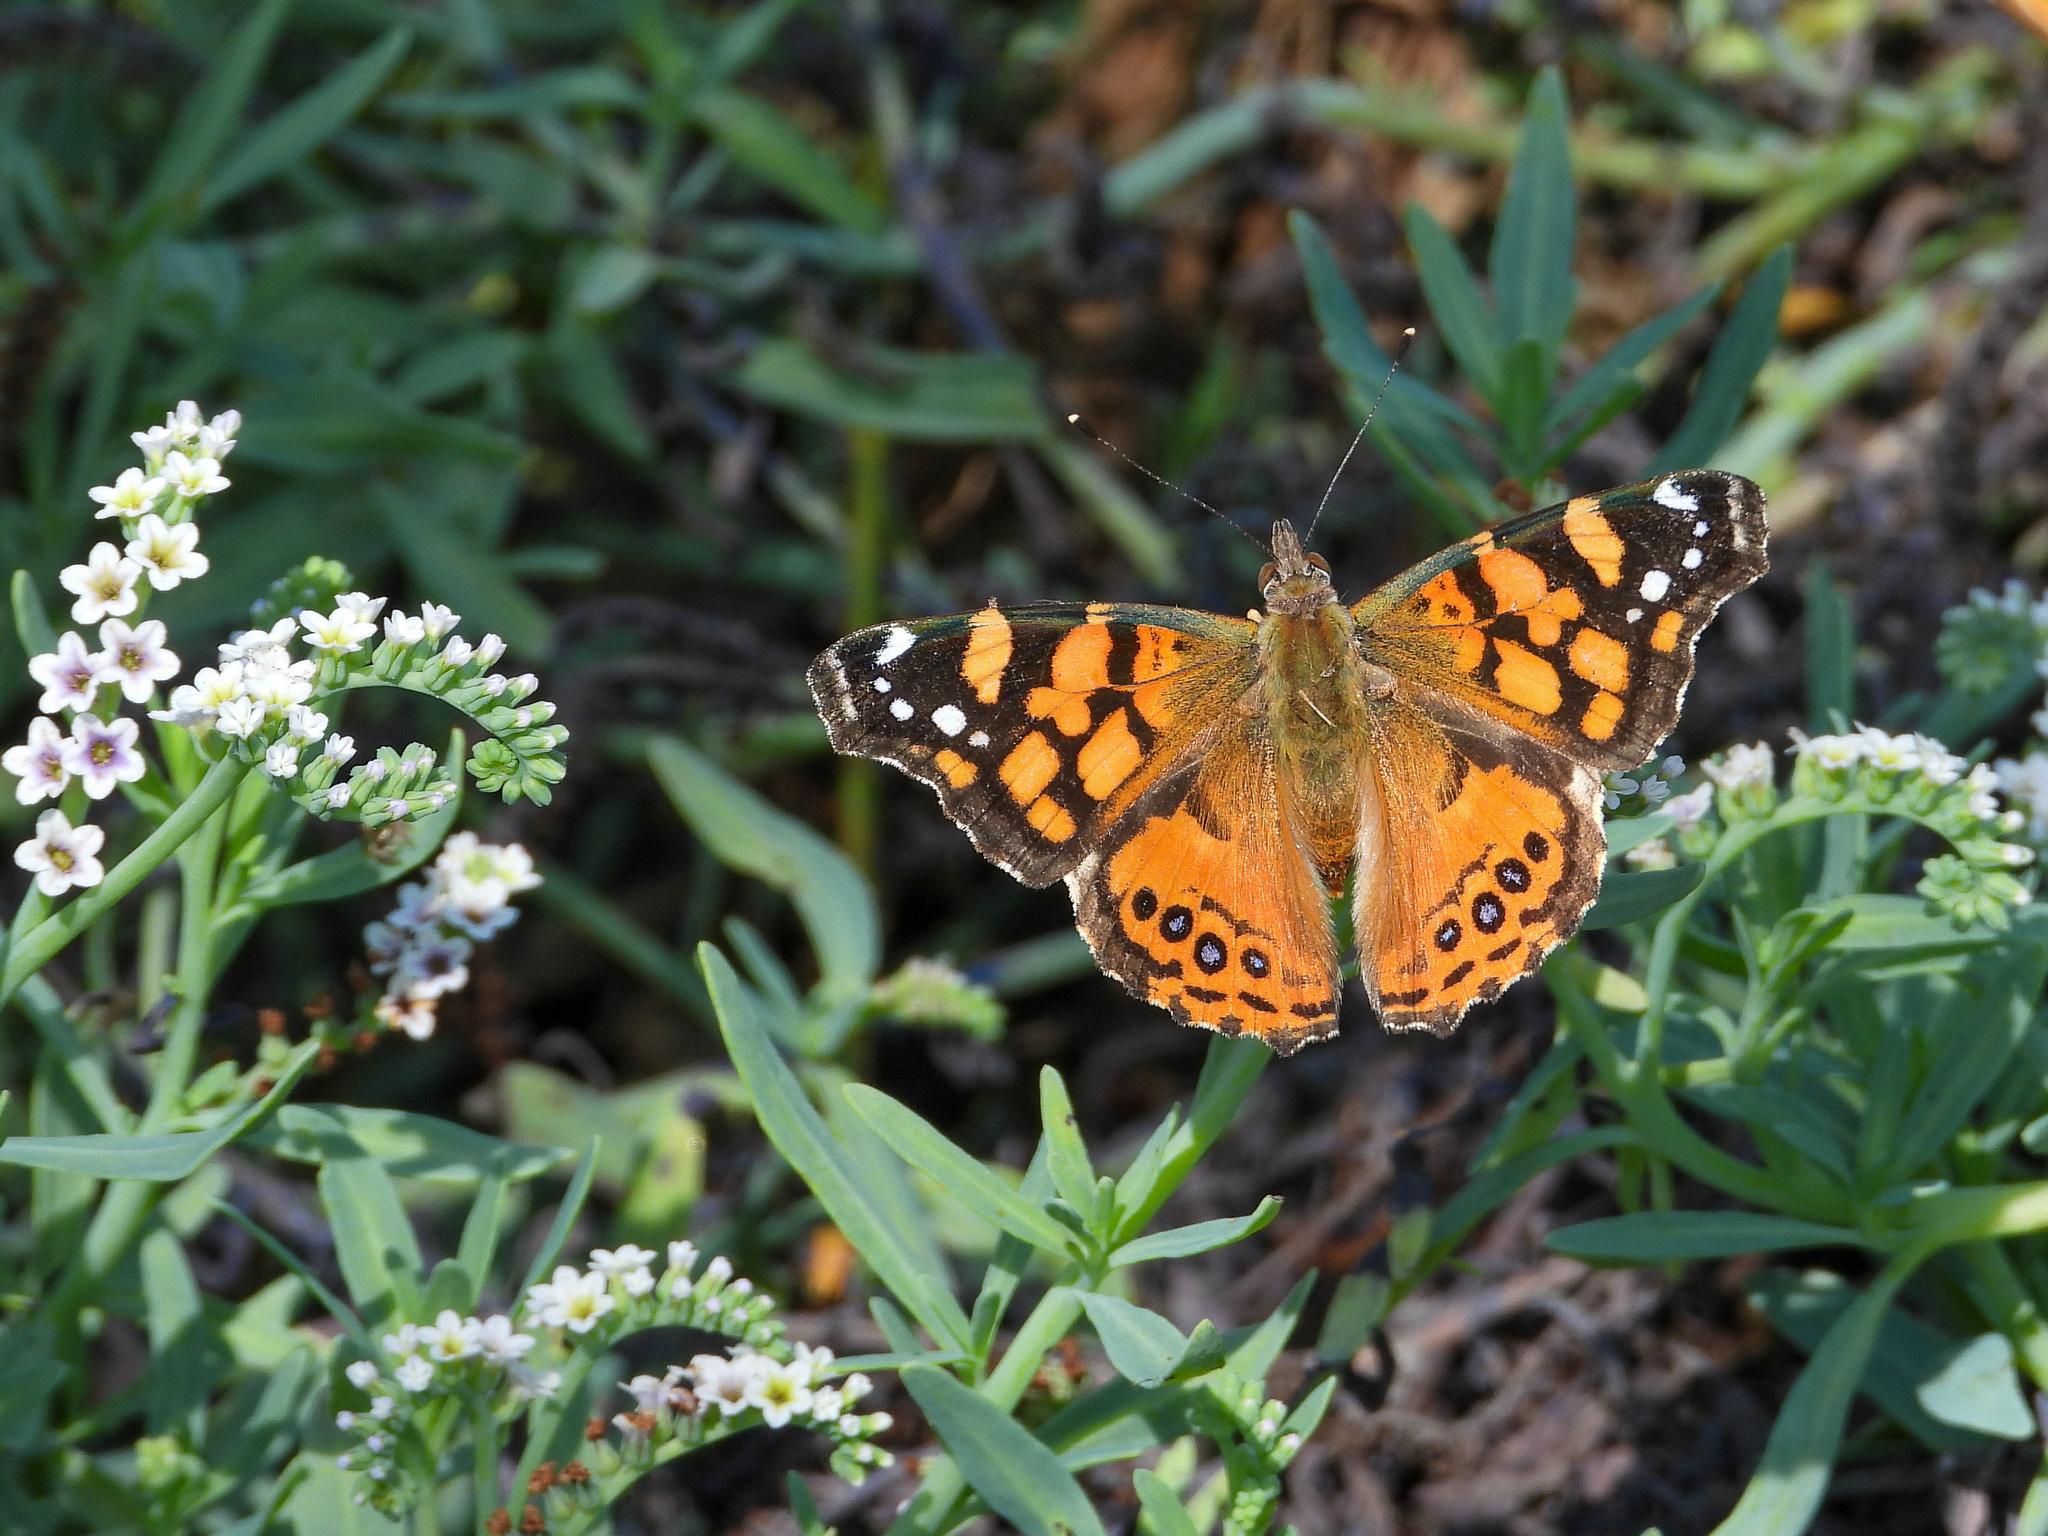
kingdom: Animalia
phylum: Arthropoda
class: Insecta
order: Lepidoptera
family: Nymphalidae
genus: Vanessa
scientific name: Vanessa annabella
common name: West coast lady
